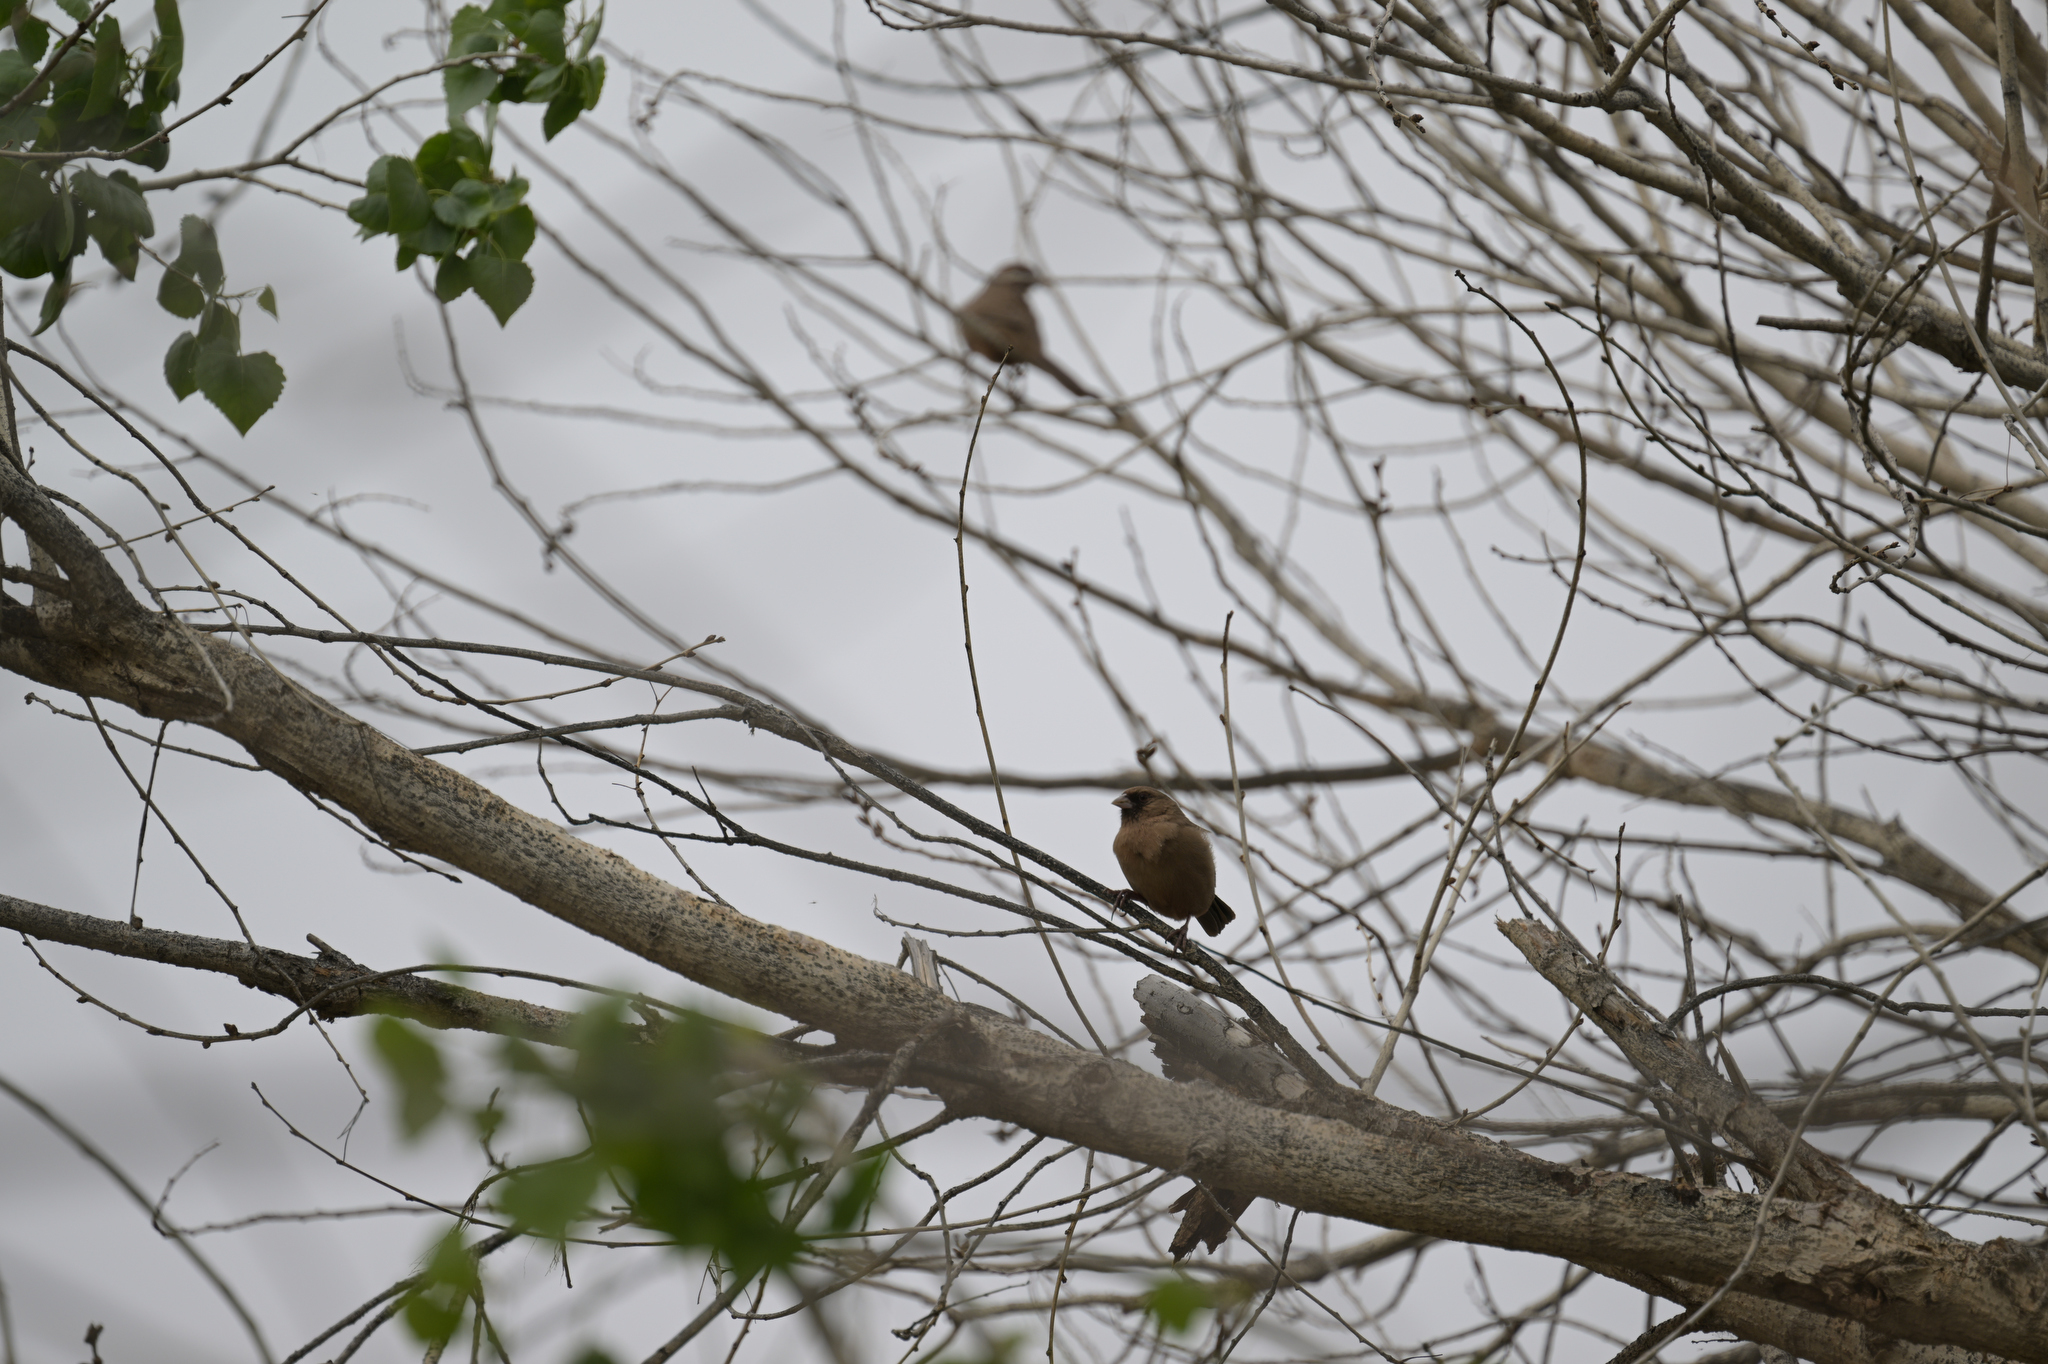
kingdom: Animalia
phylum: Chordata
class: Aves
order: Passeriformes
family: Passerellidae
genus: Melozone
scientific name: Melozone aberti
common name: Abert's towhee
